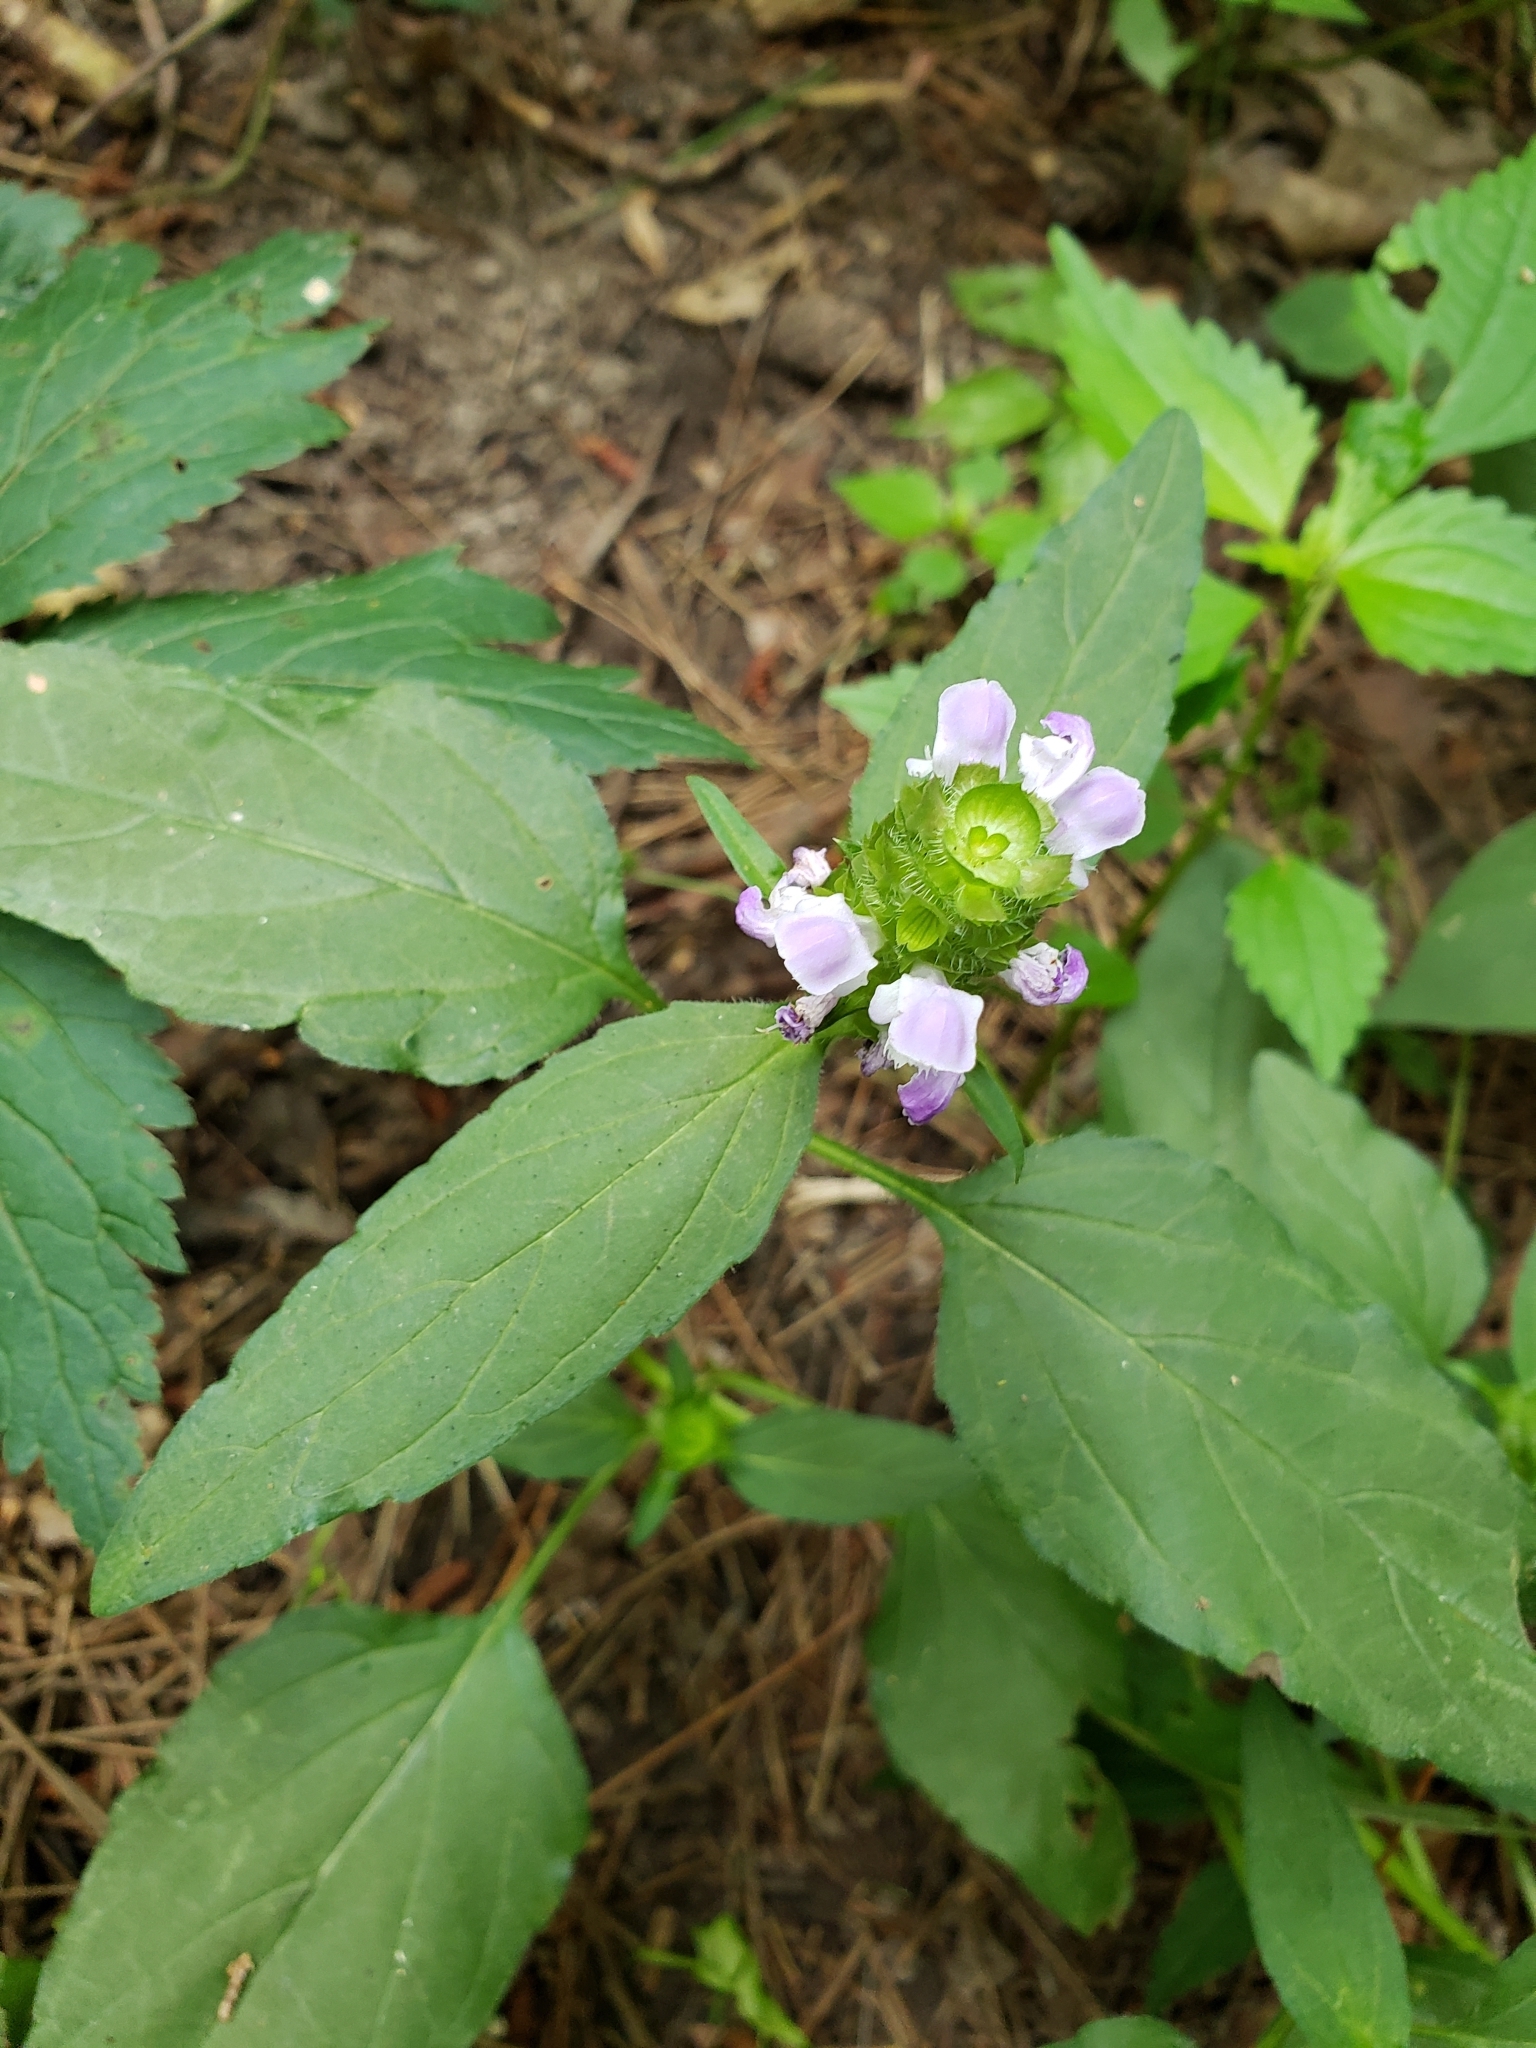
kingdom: Plantae
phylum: Tracheophyta
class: Magnoliopsida
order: Lamiales
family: Lamiaceae
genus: Prunella
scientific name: Prunella vulgaris
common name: Heal-all
